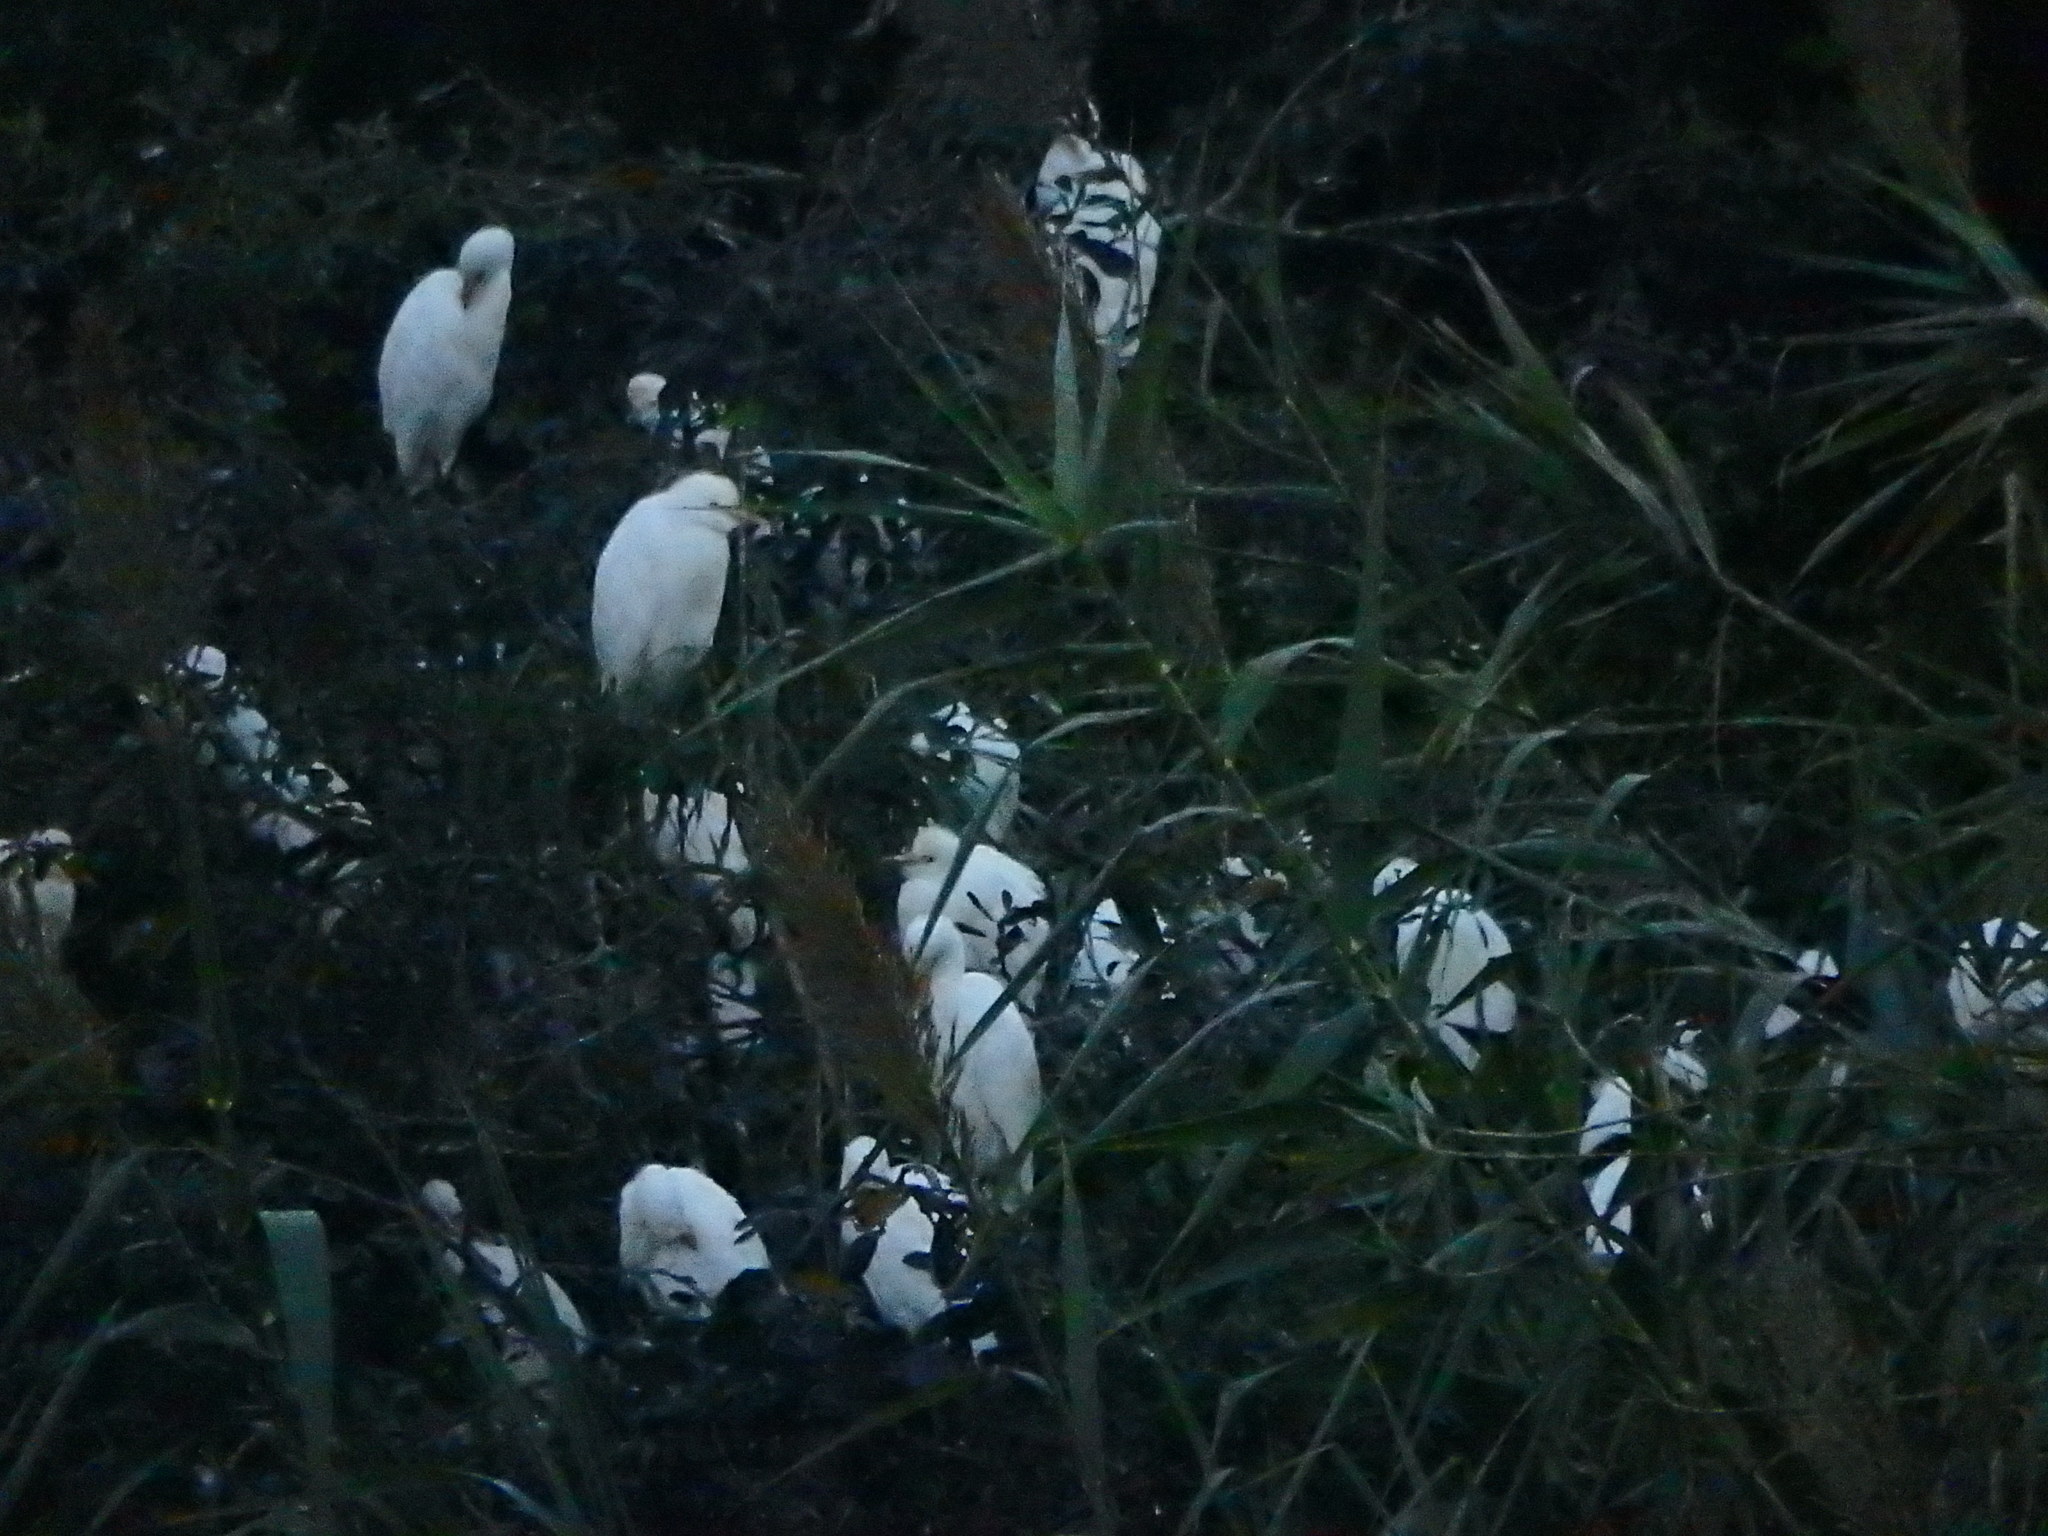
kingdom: Animalia
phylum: Chordata
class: Aves
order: Pelecaniformes
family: Ardeidae
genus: Bubulcus
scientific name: Bubulcus ibis
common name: Cattle egret
